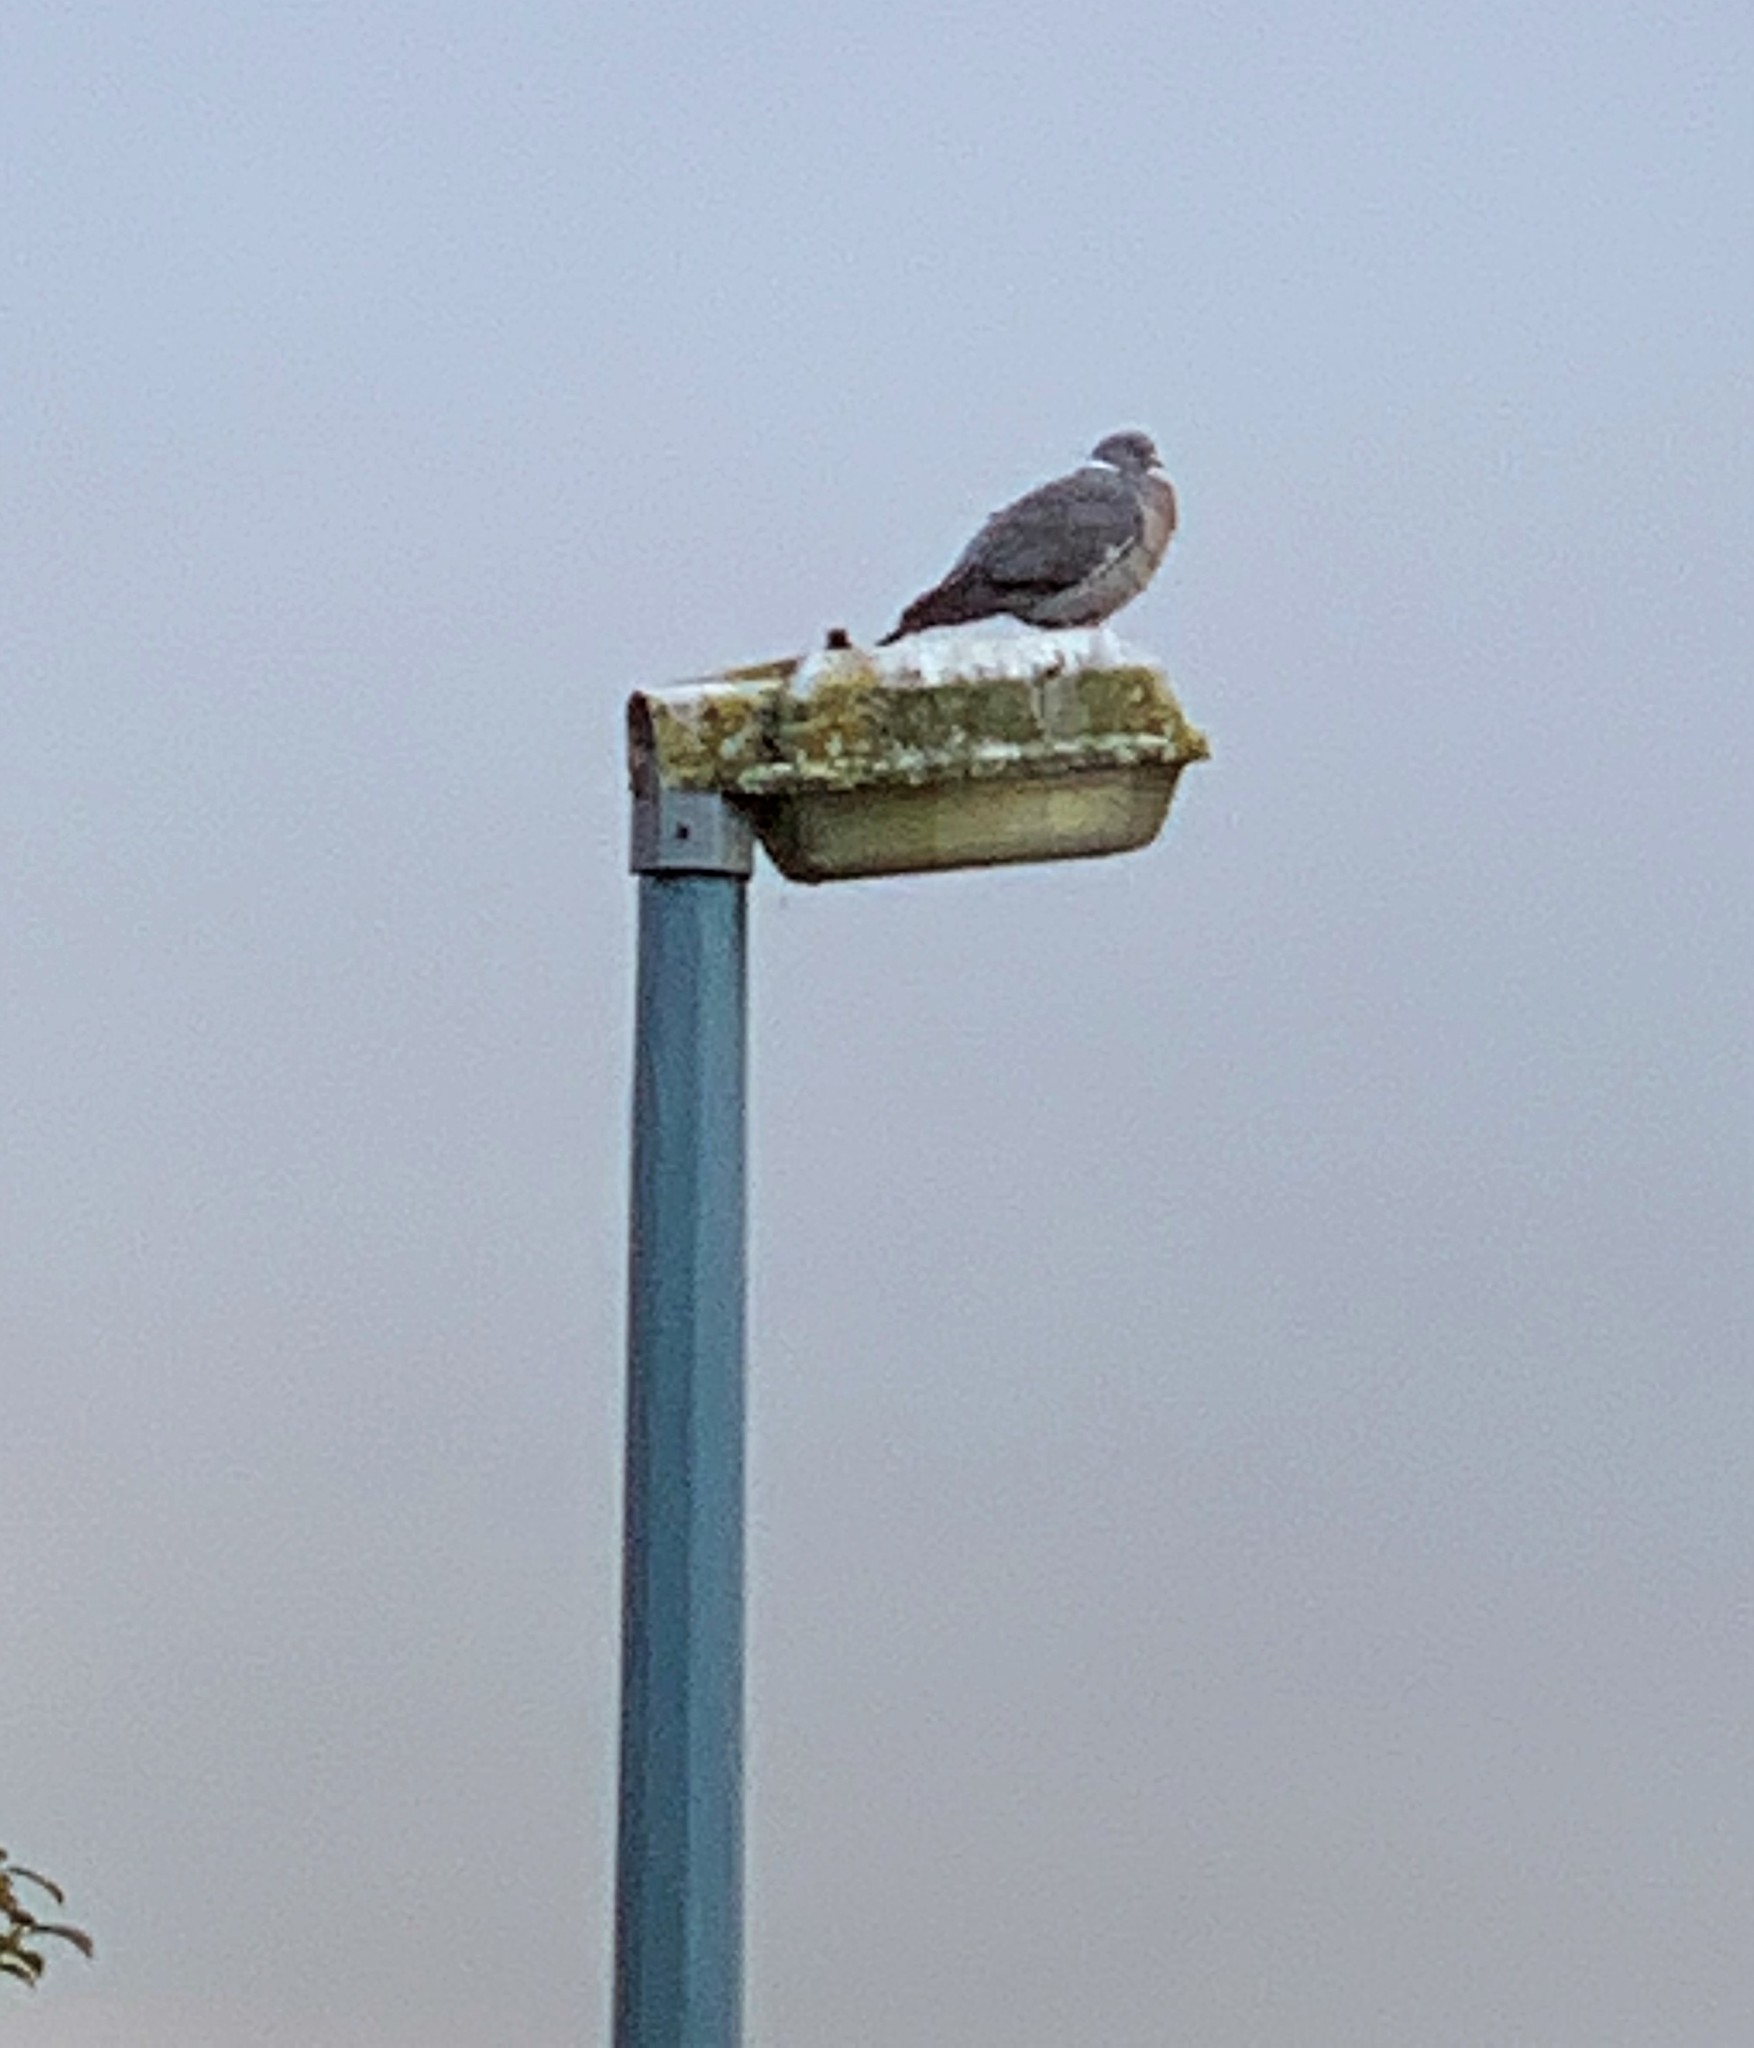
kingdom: Animalia
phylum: Chordata
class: Aves
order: Columbiformes
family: Columbidae
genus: Columba
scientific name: Columba palumbus
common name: Common wood pigeon
